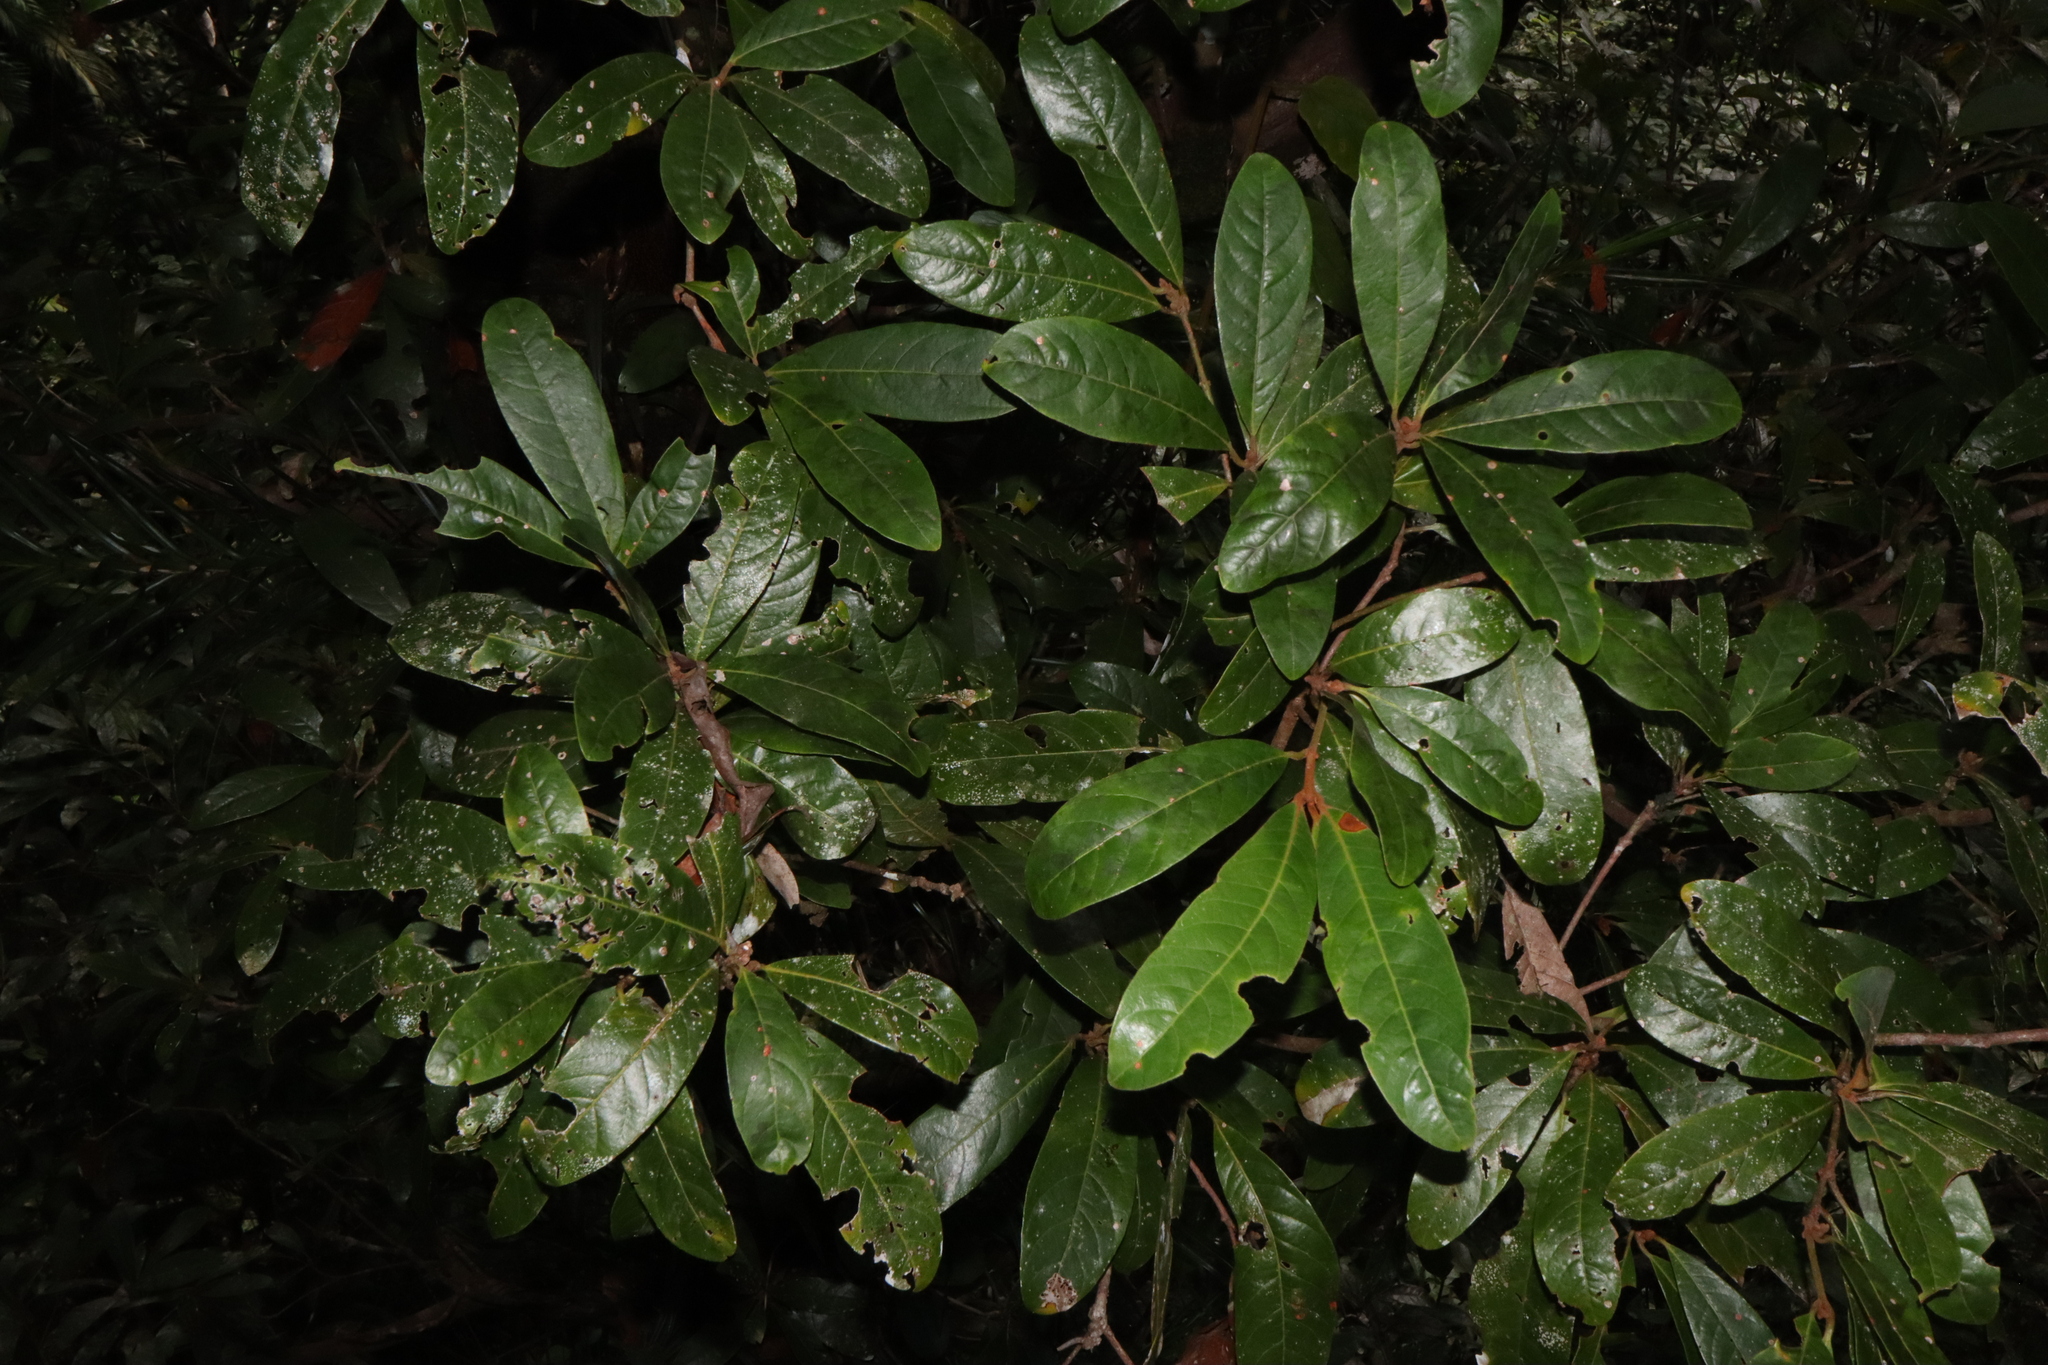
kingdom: Plantae
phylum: Tracheophyta
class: Magnoliopsida
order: Laurales
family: Lauraceae
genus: Beilschmiedia
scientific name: Beilschmiedia tooram
